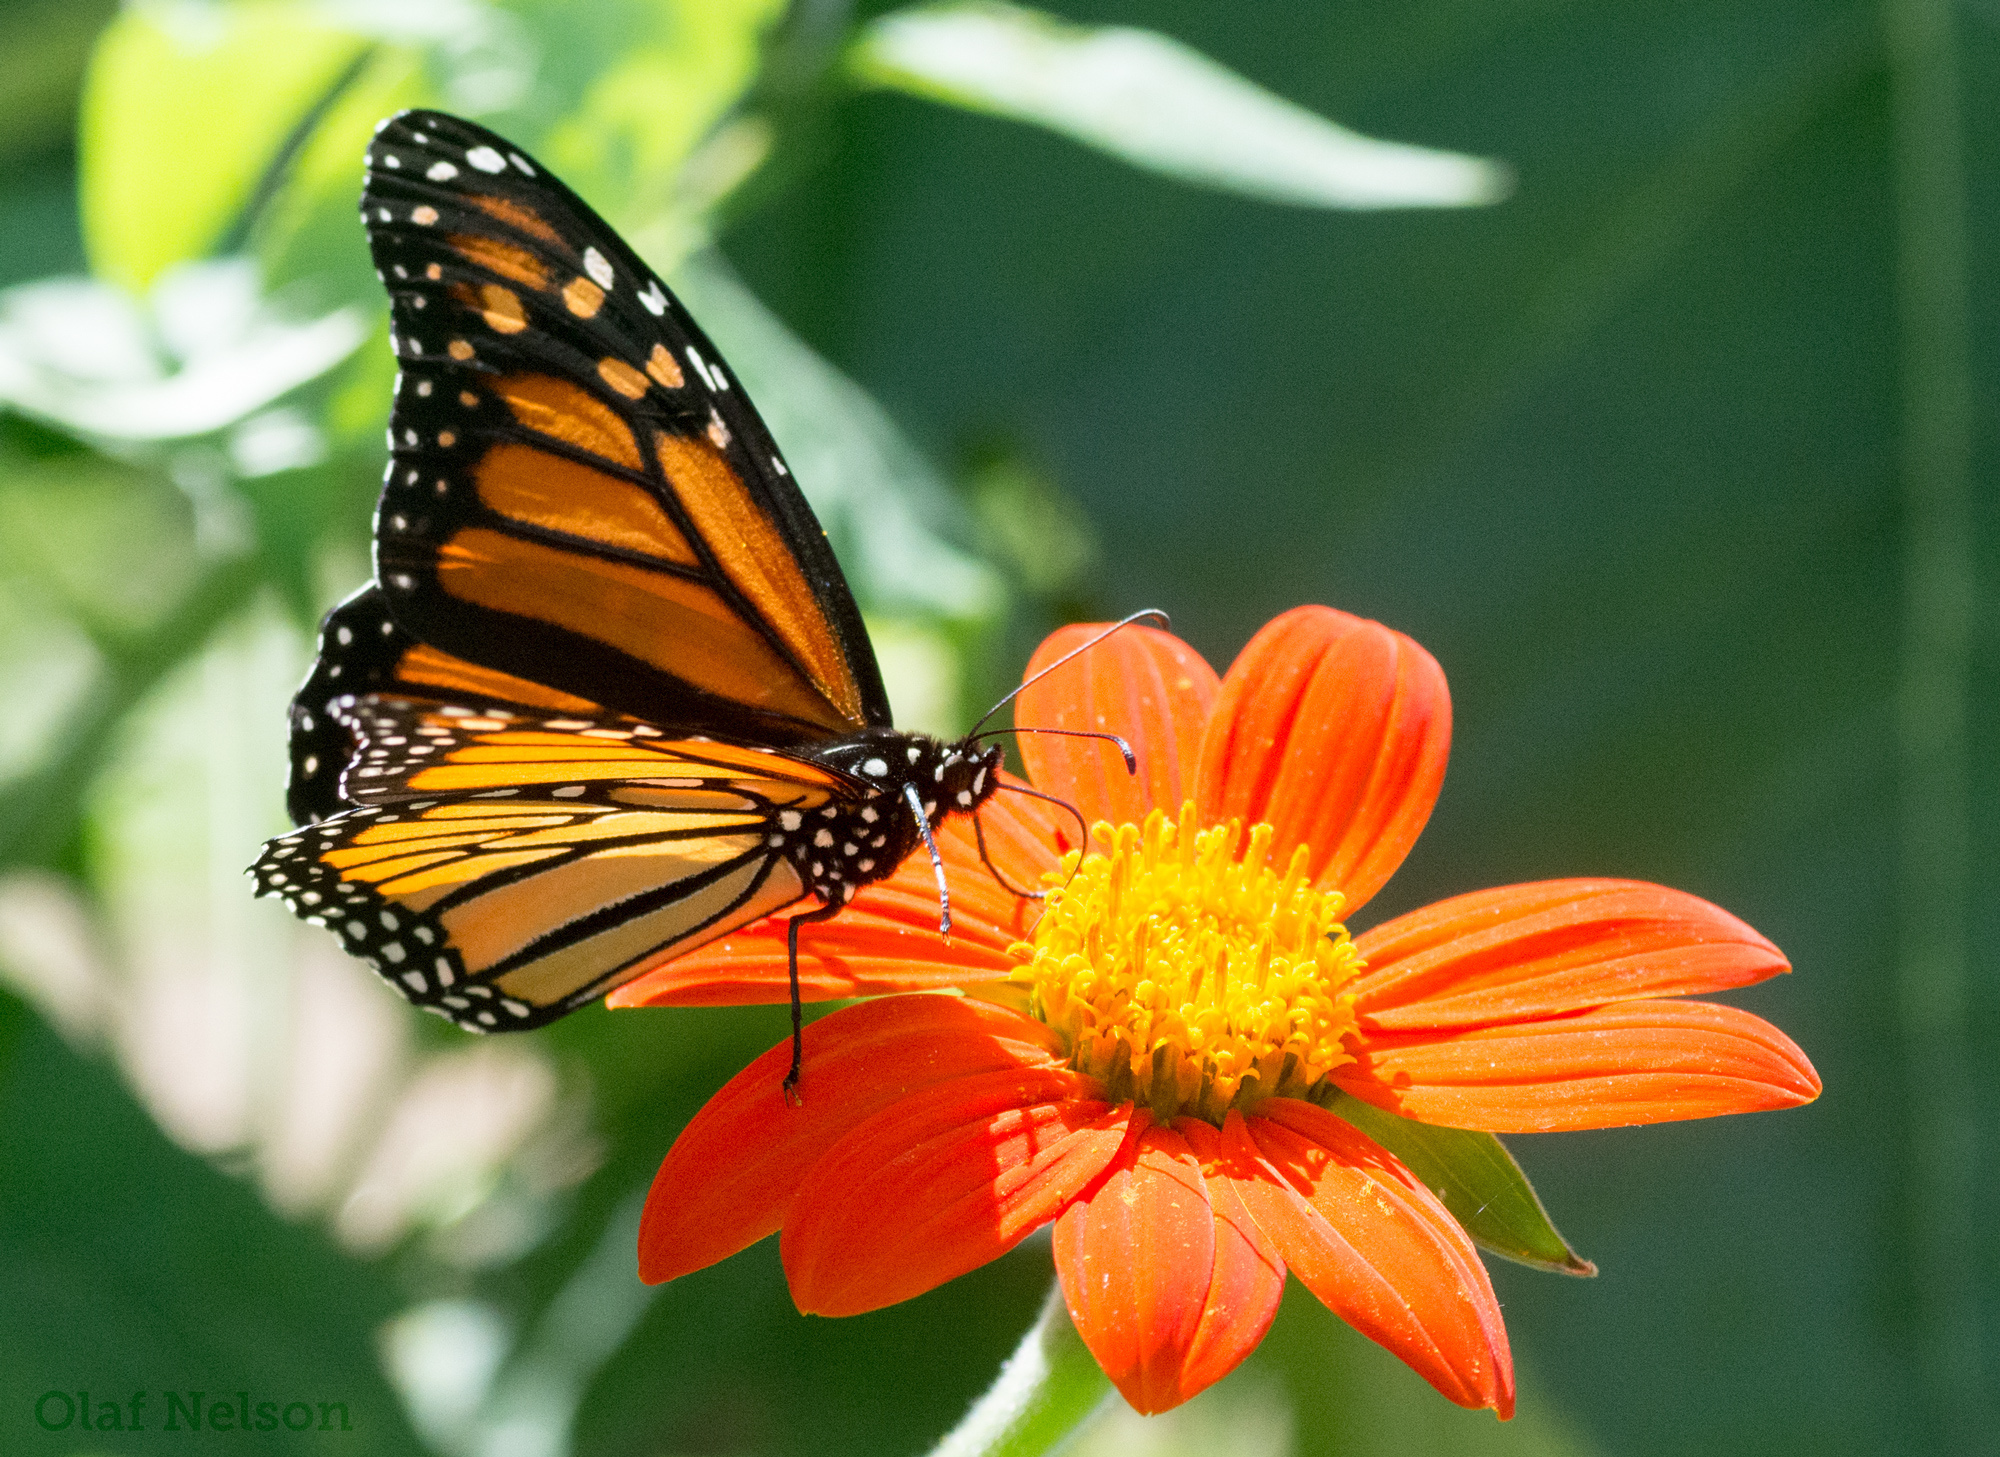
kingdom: Animalia
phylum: Arthropoda
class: Insecta
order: Lepidoptera
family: Nymphalidae
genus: Danaus
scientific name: Danaus plexippus
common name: Monarch
